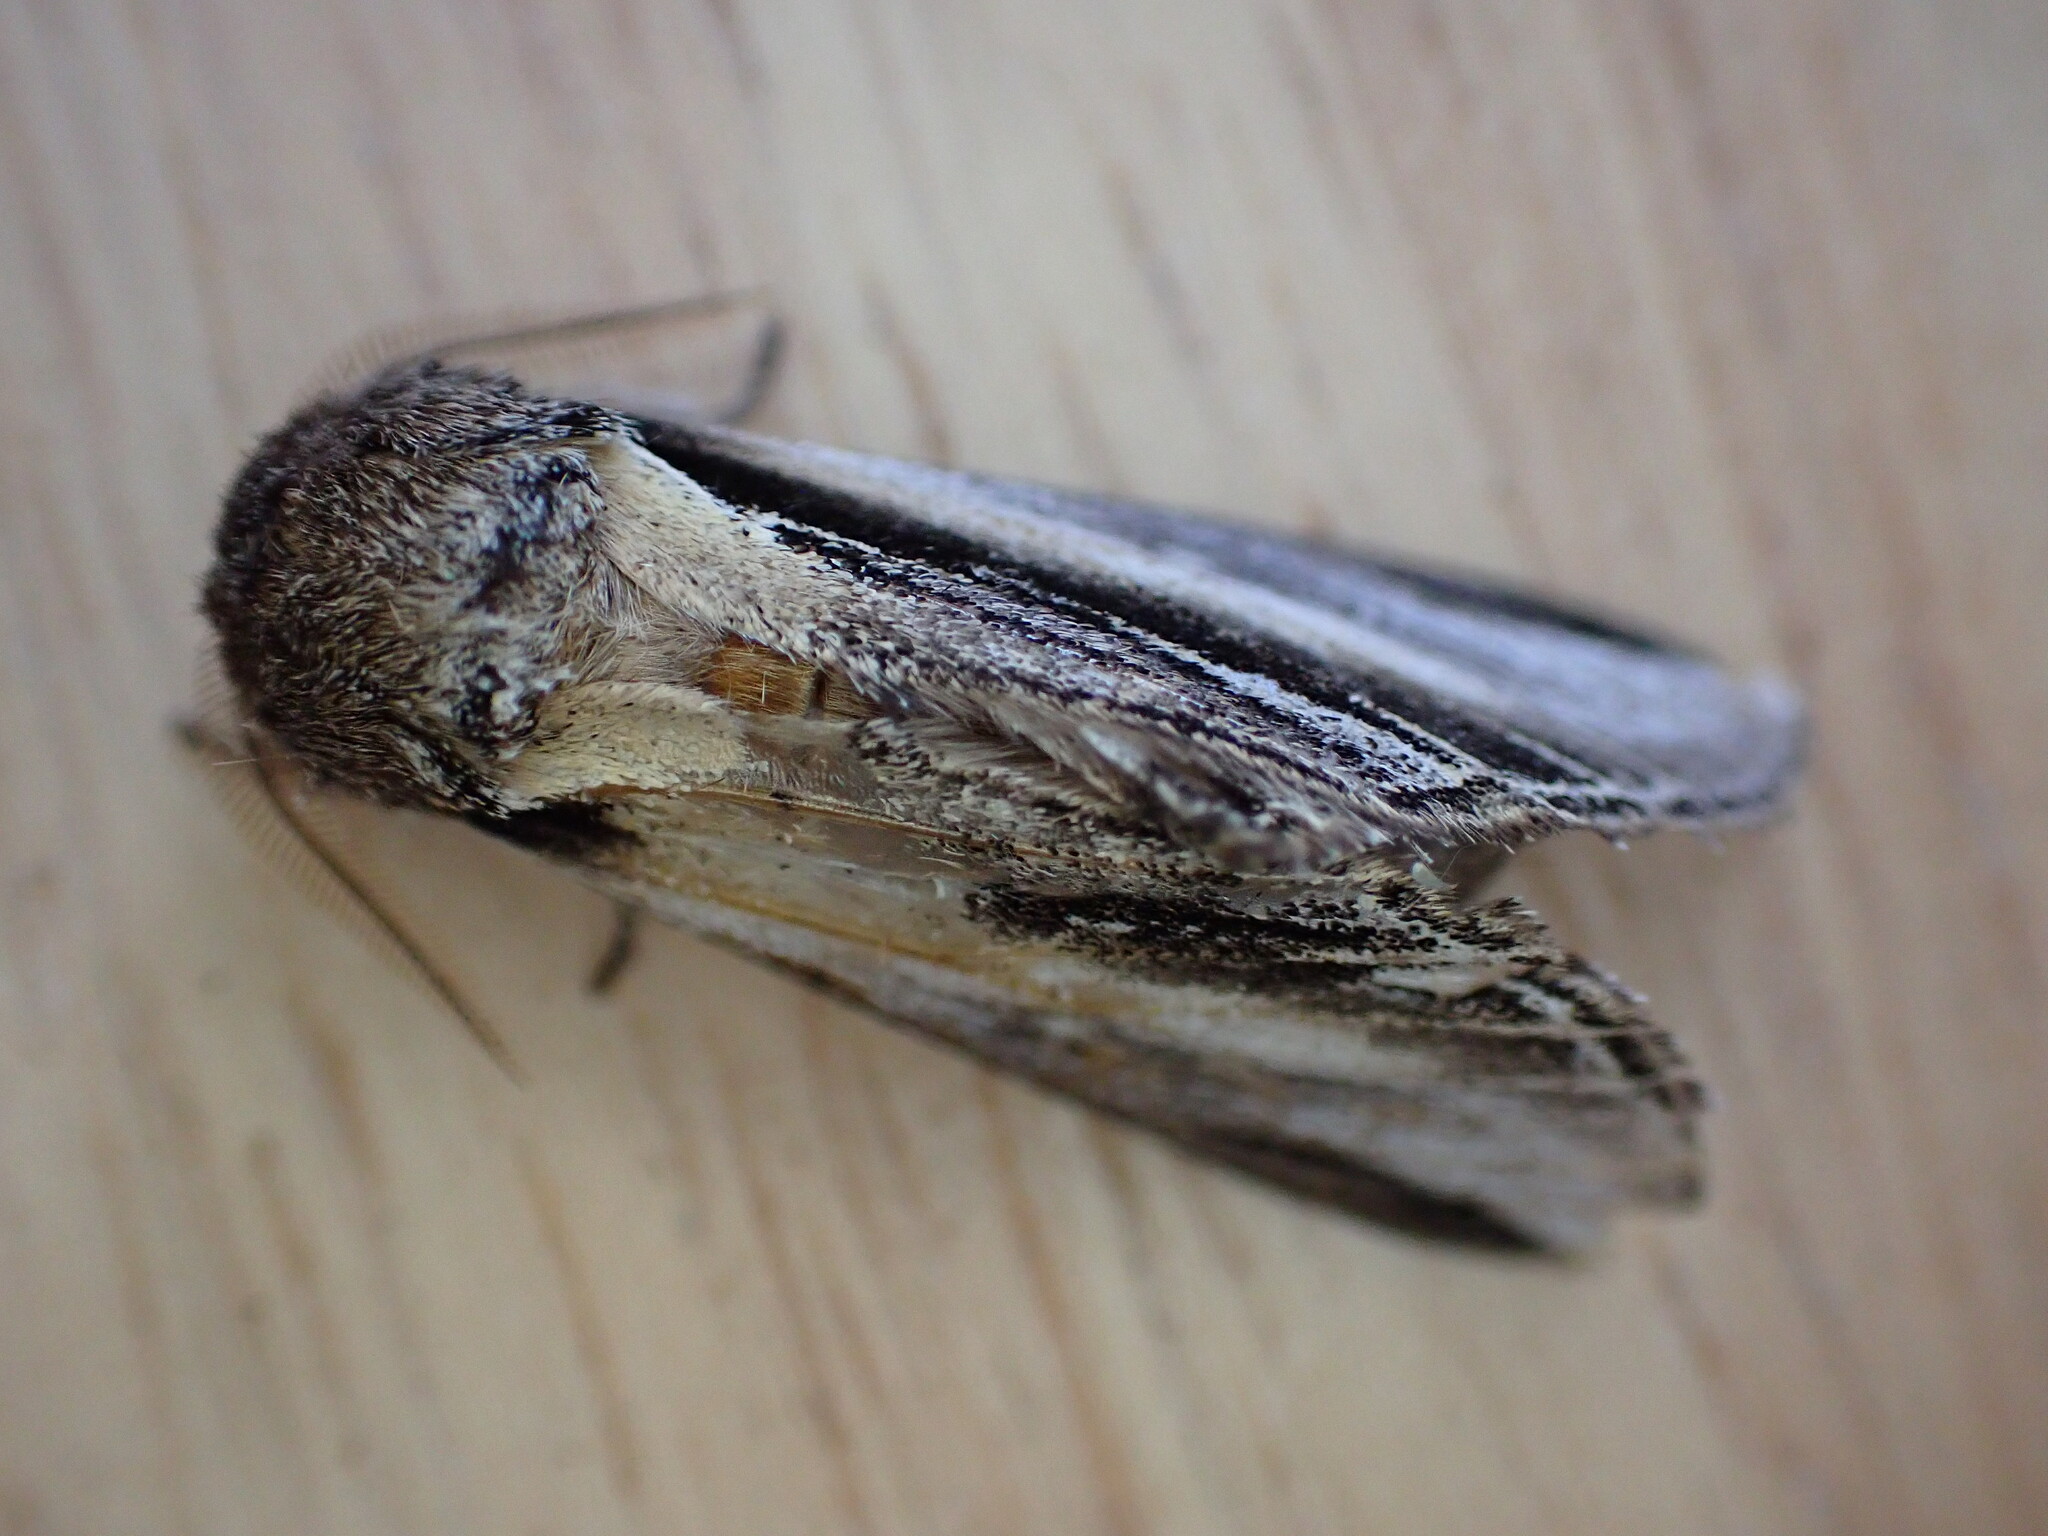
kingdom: Animalia
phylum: Arthropoda
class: Insecta
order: Lepidoptera
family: Notodontidae
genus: Pheosia
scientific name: Pheosia tremula
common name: Swallow prominent
